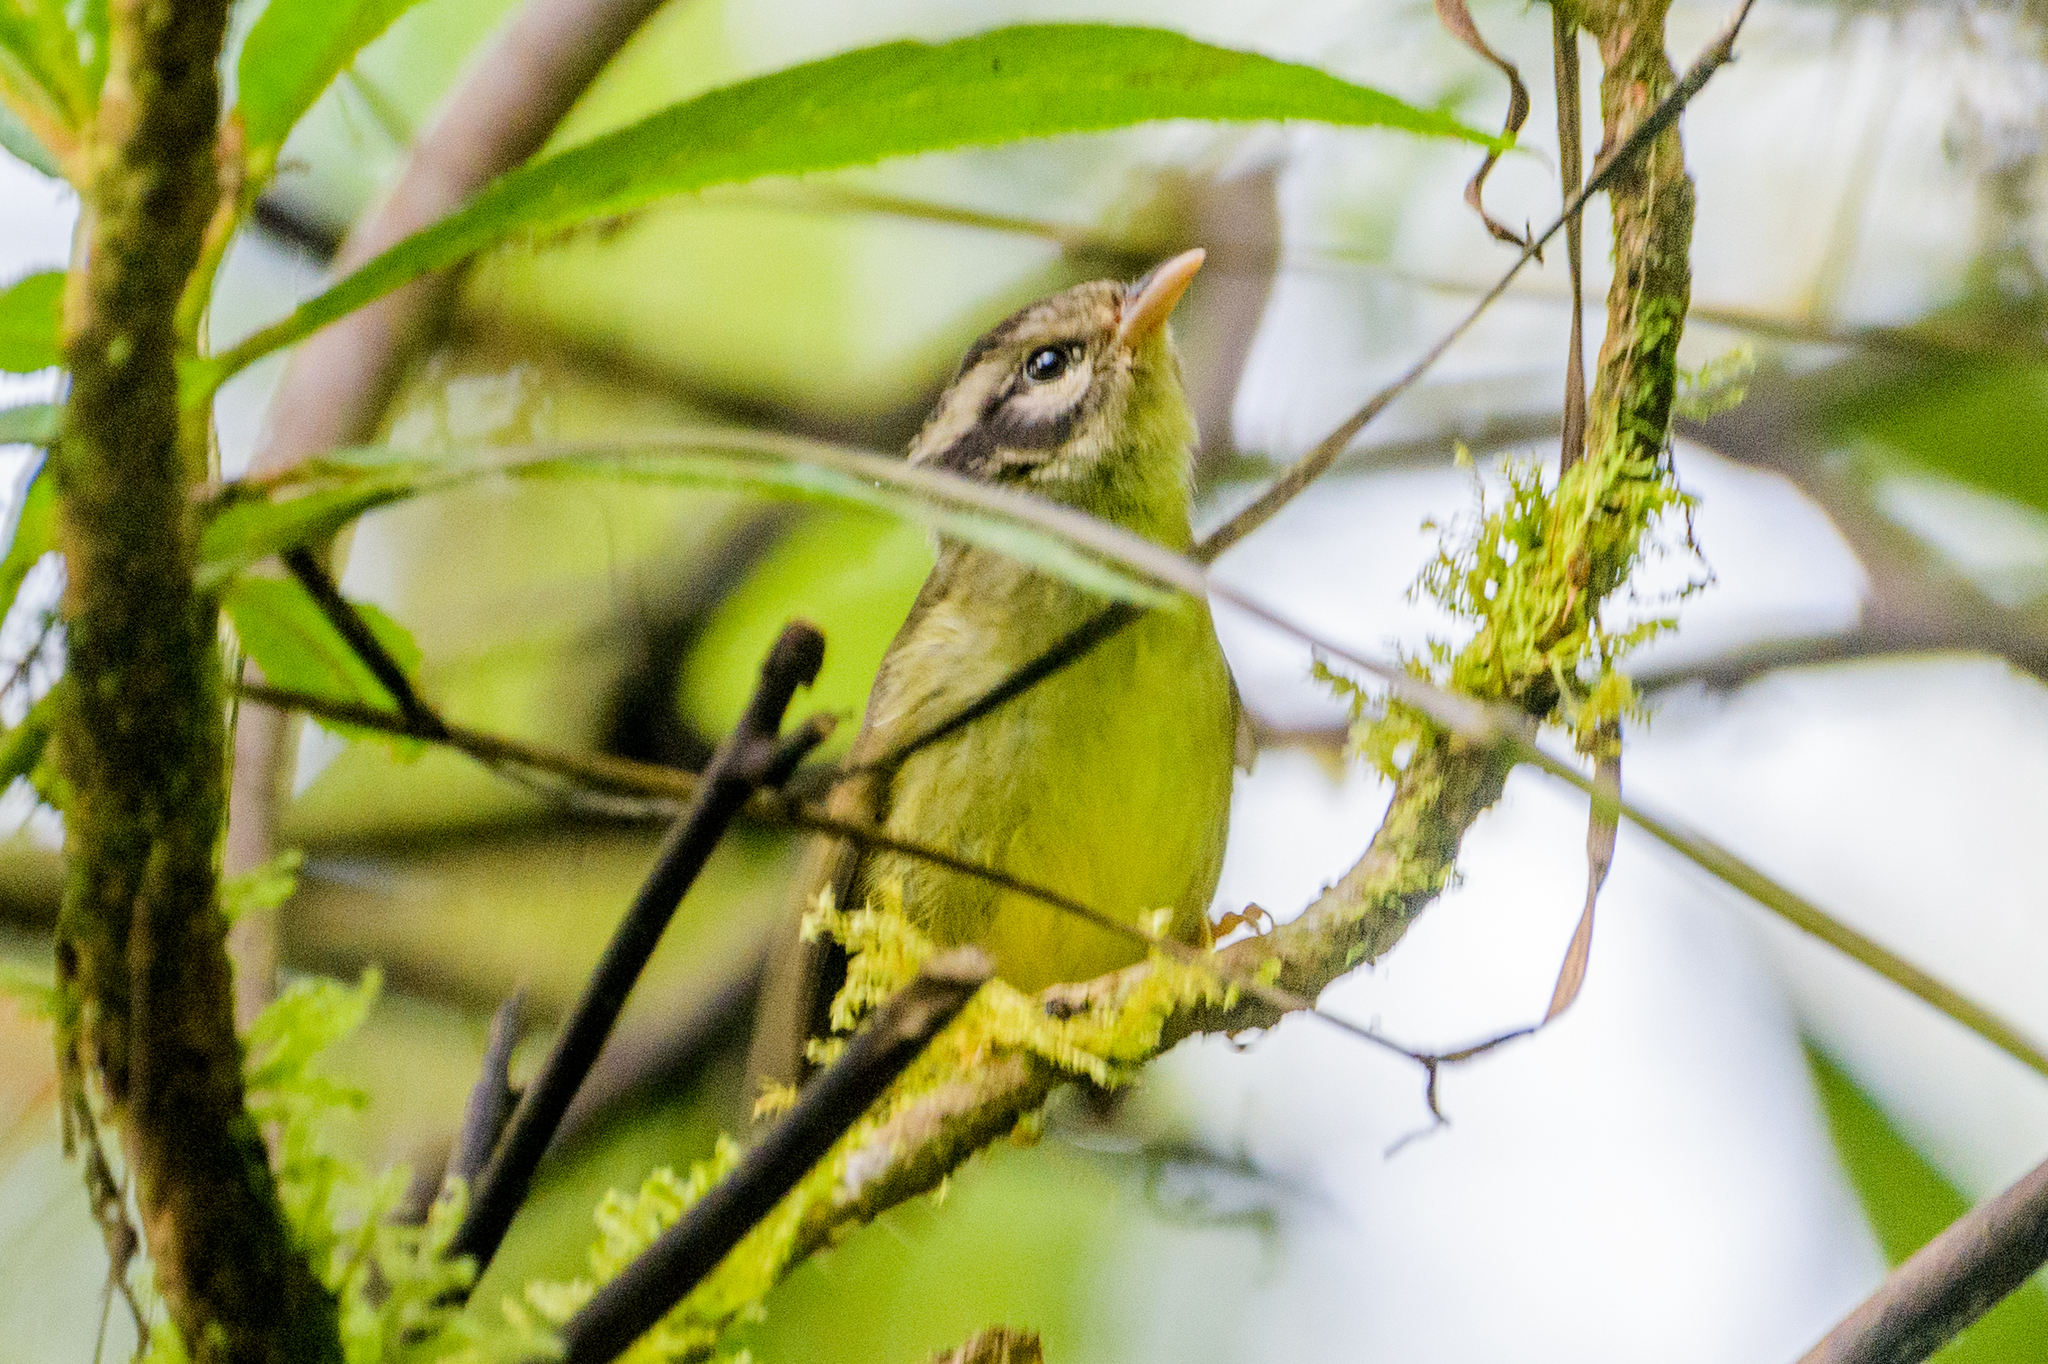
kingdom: Animalia
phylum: Chordata
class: Aves
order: Passeriformes
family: Parulidae
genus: Basileuterus
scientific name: Basileuterus melanotis
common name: Black-eared warbler
